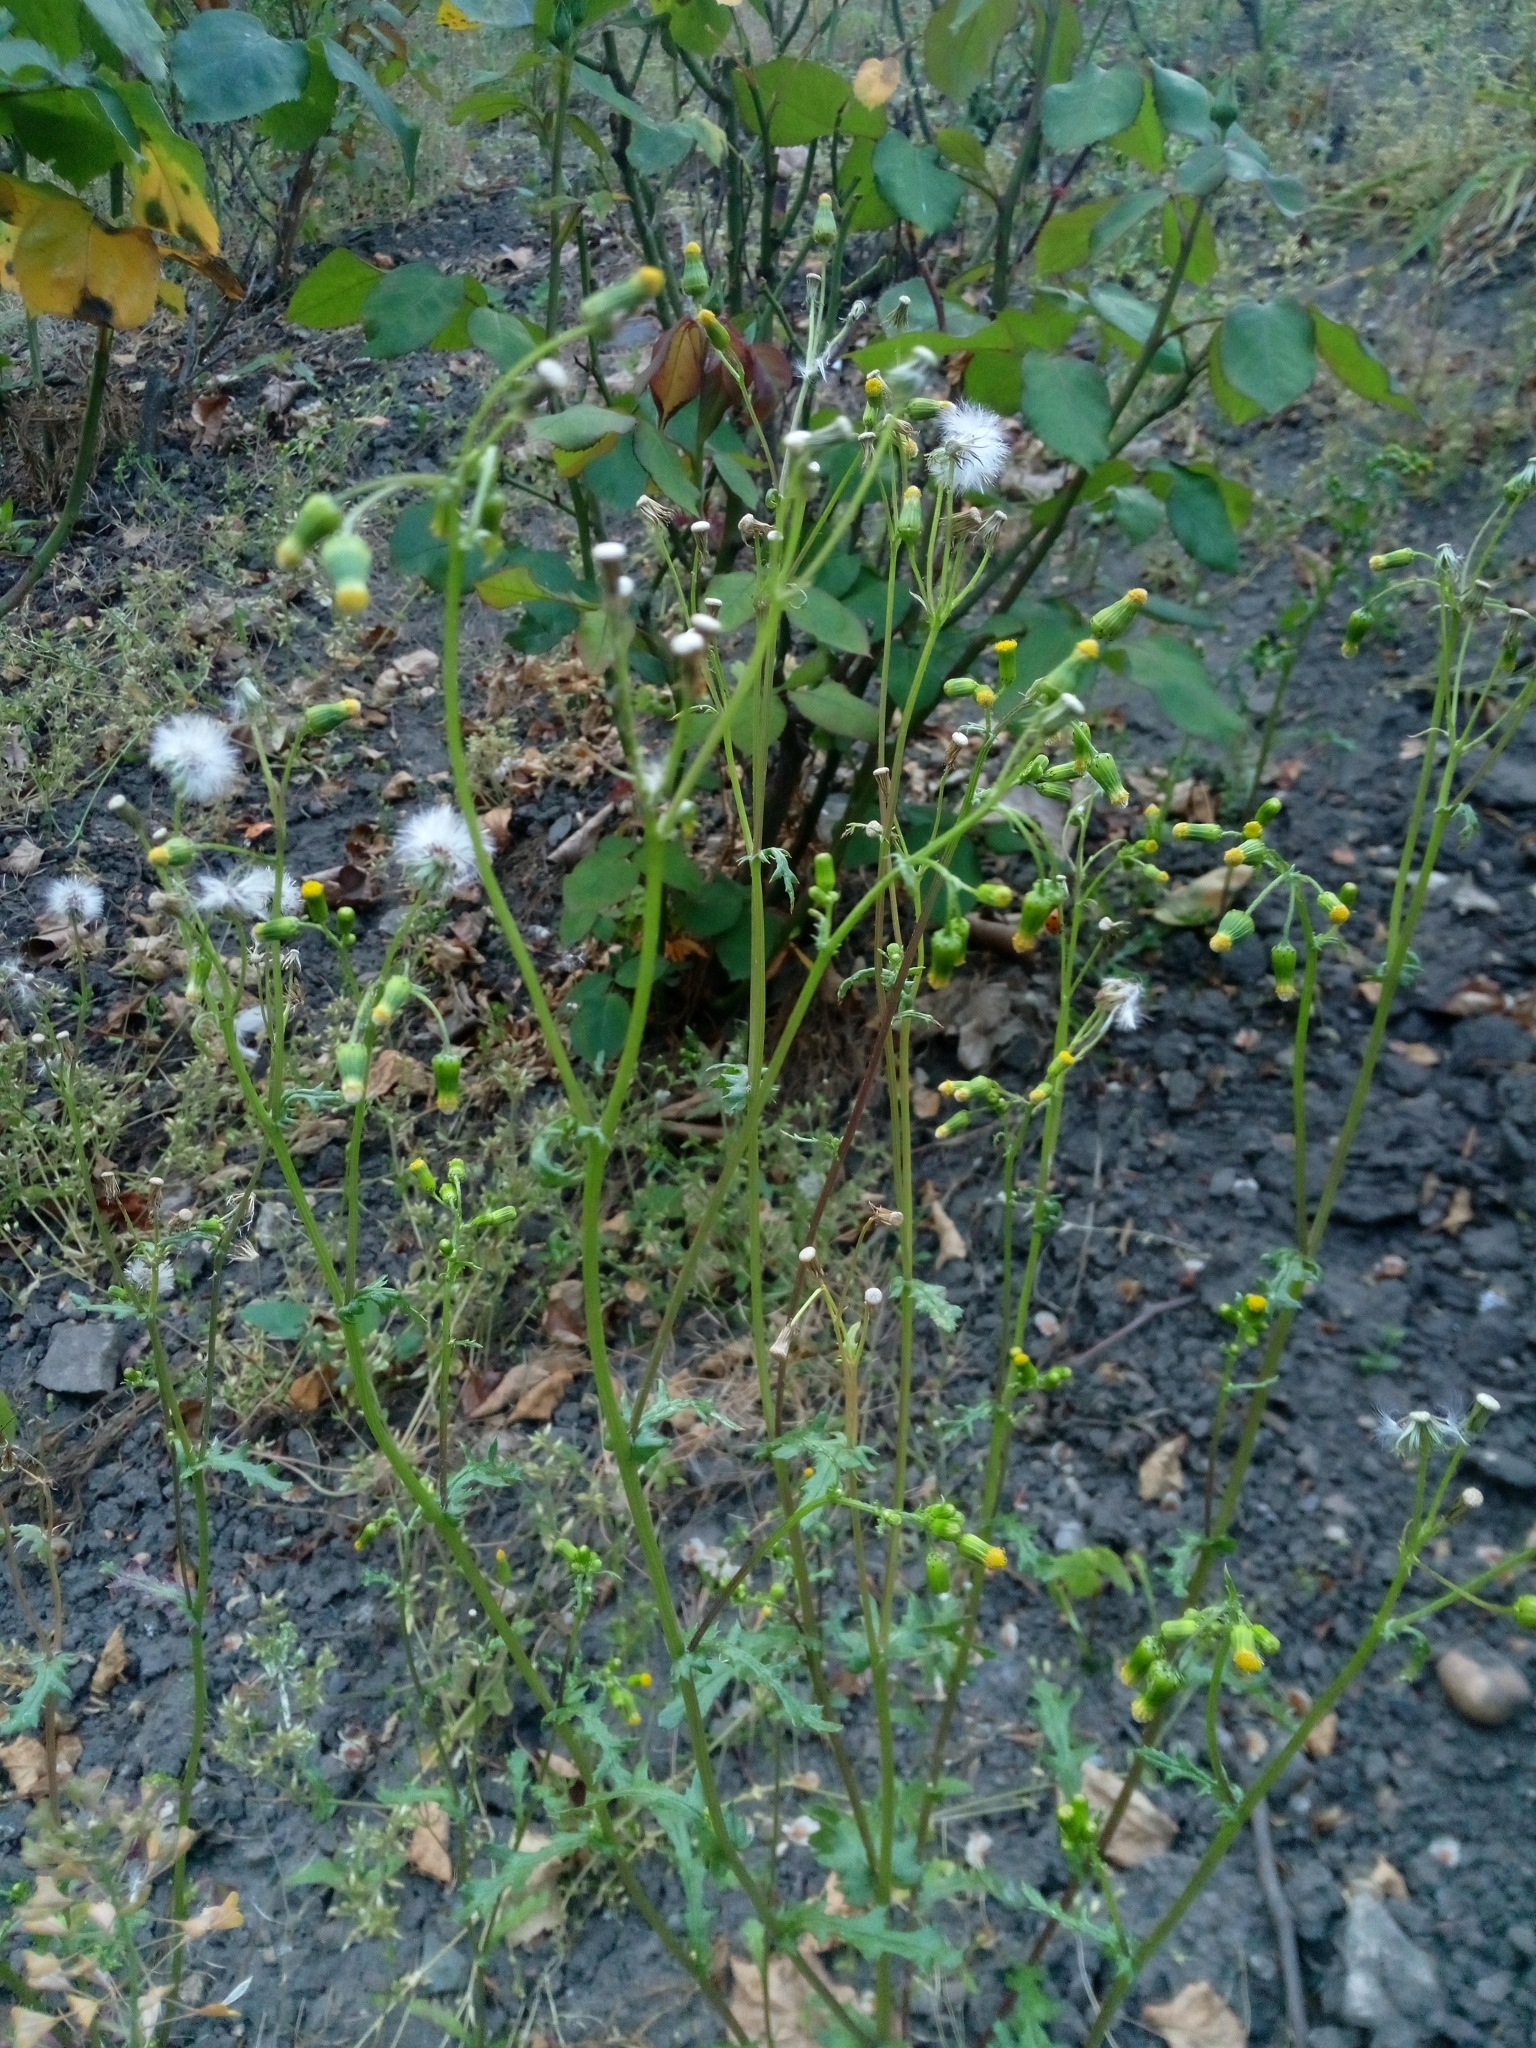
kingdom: Plantae
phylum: Tracheophyta
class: Magnoliopsida
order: Asterales
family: Asteraceae
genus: Senecio
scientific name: Senecio vulgaris
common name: Old-man-in-the-spring
